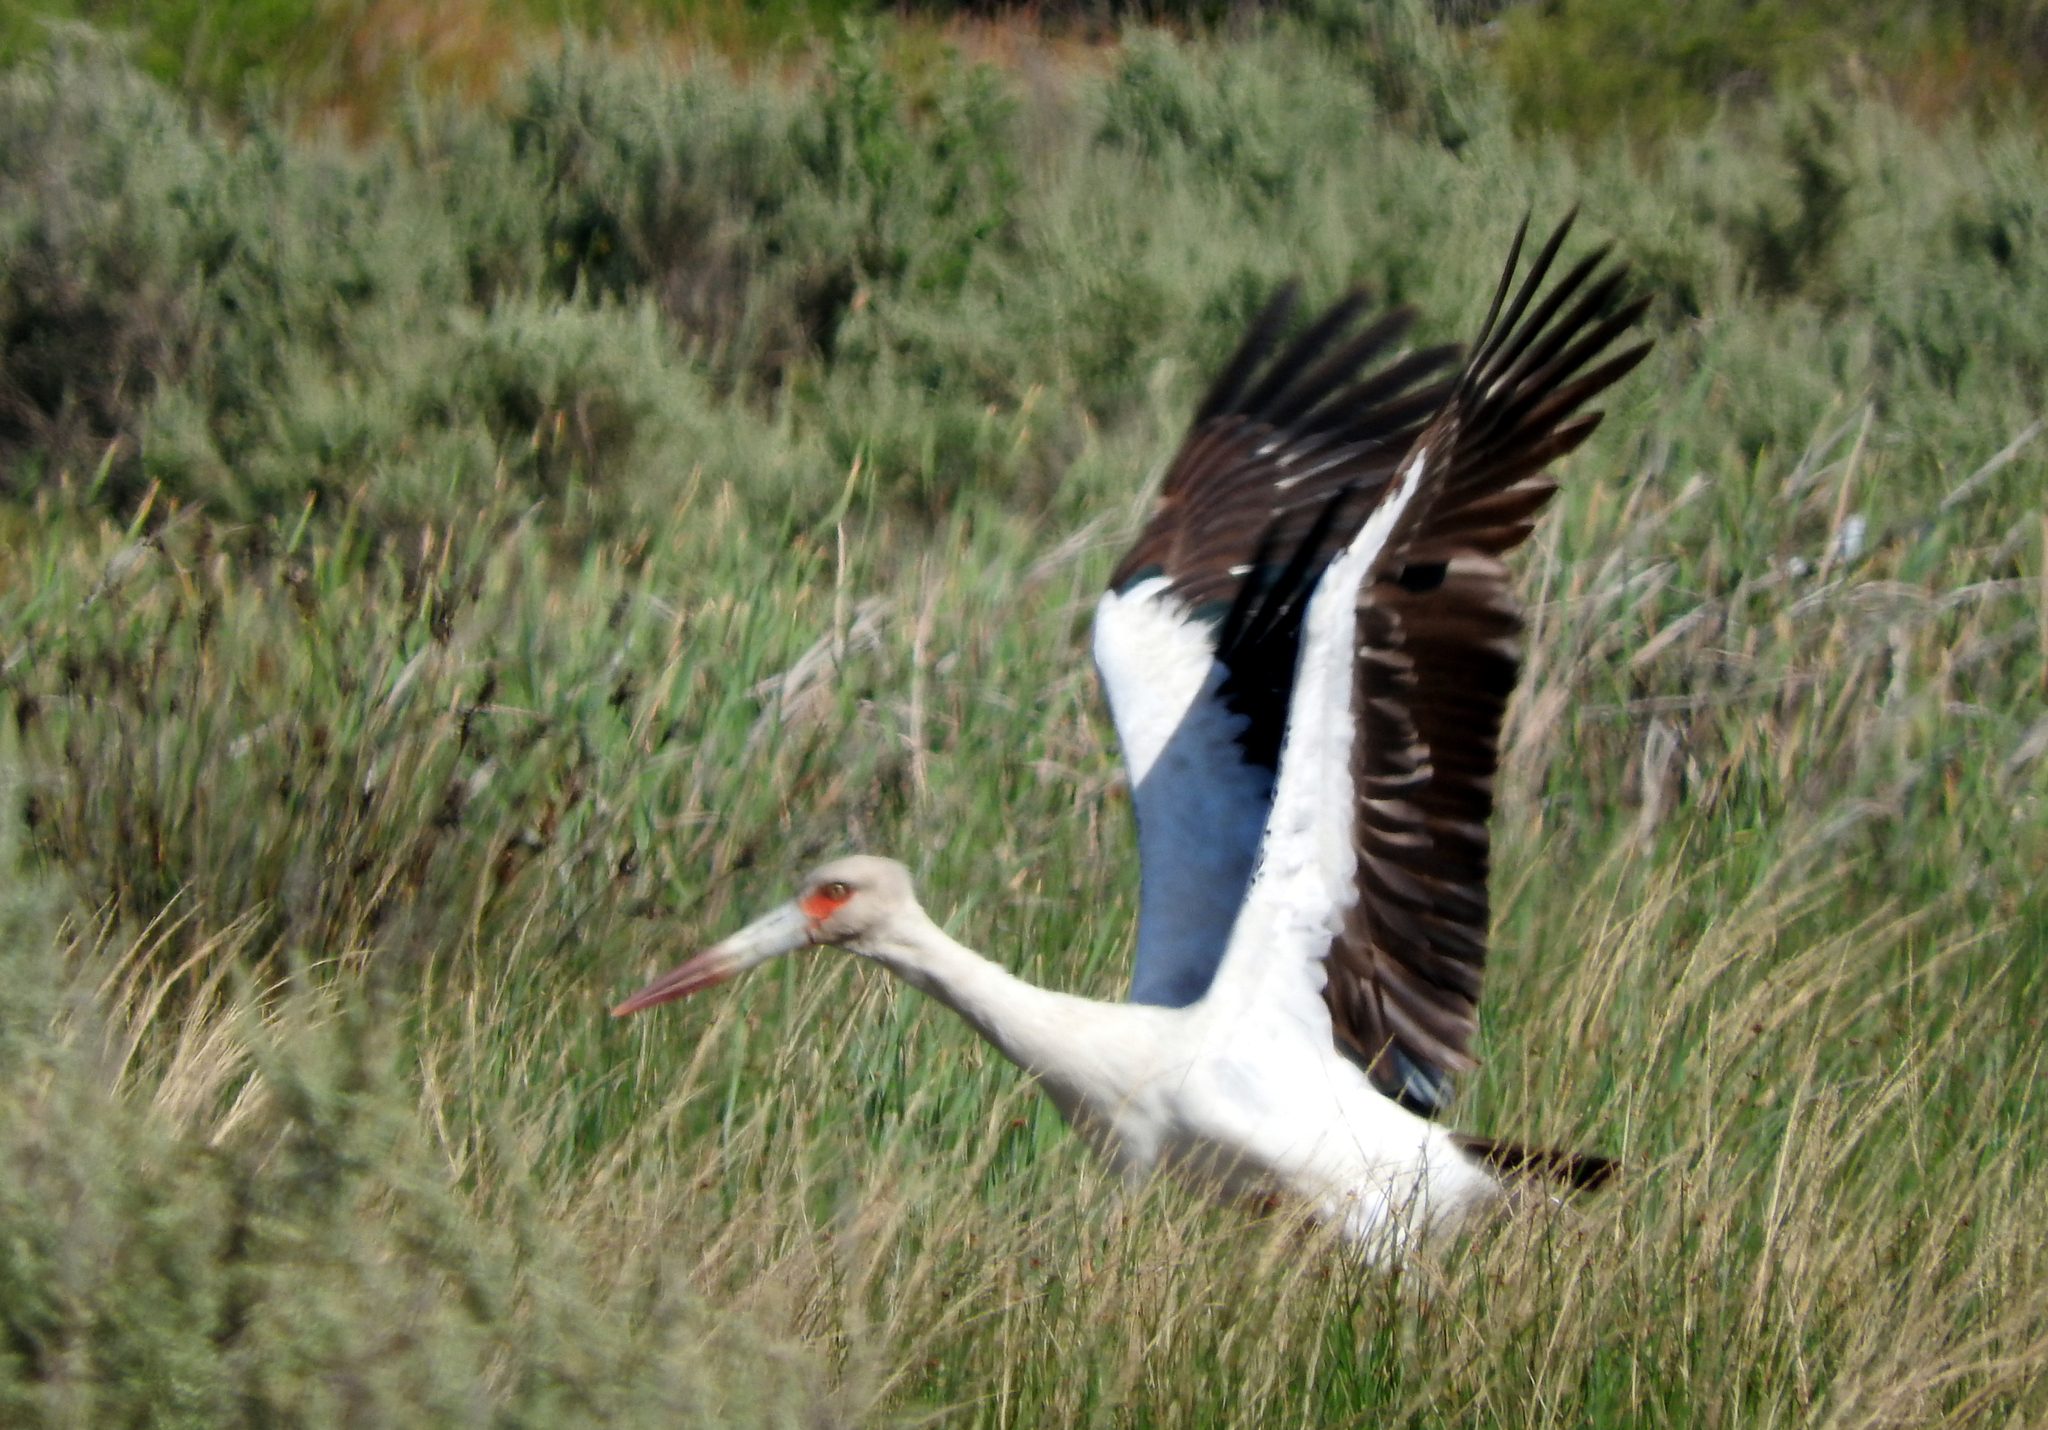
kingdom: Animalia
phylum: Chordata
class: Aves
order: Ciconiiformes
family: Ciconiidae
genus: Ciconia
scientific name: Ciconia maguari
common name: Maguari stork
